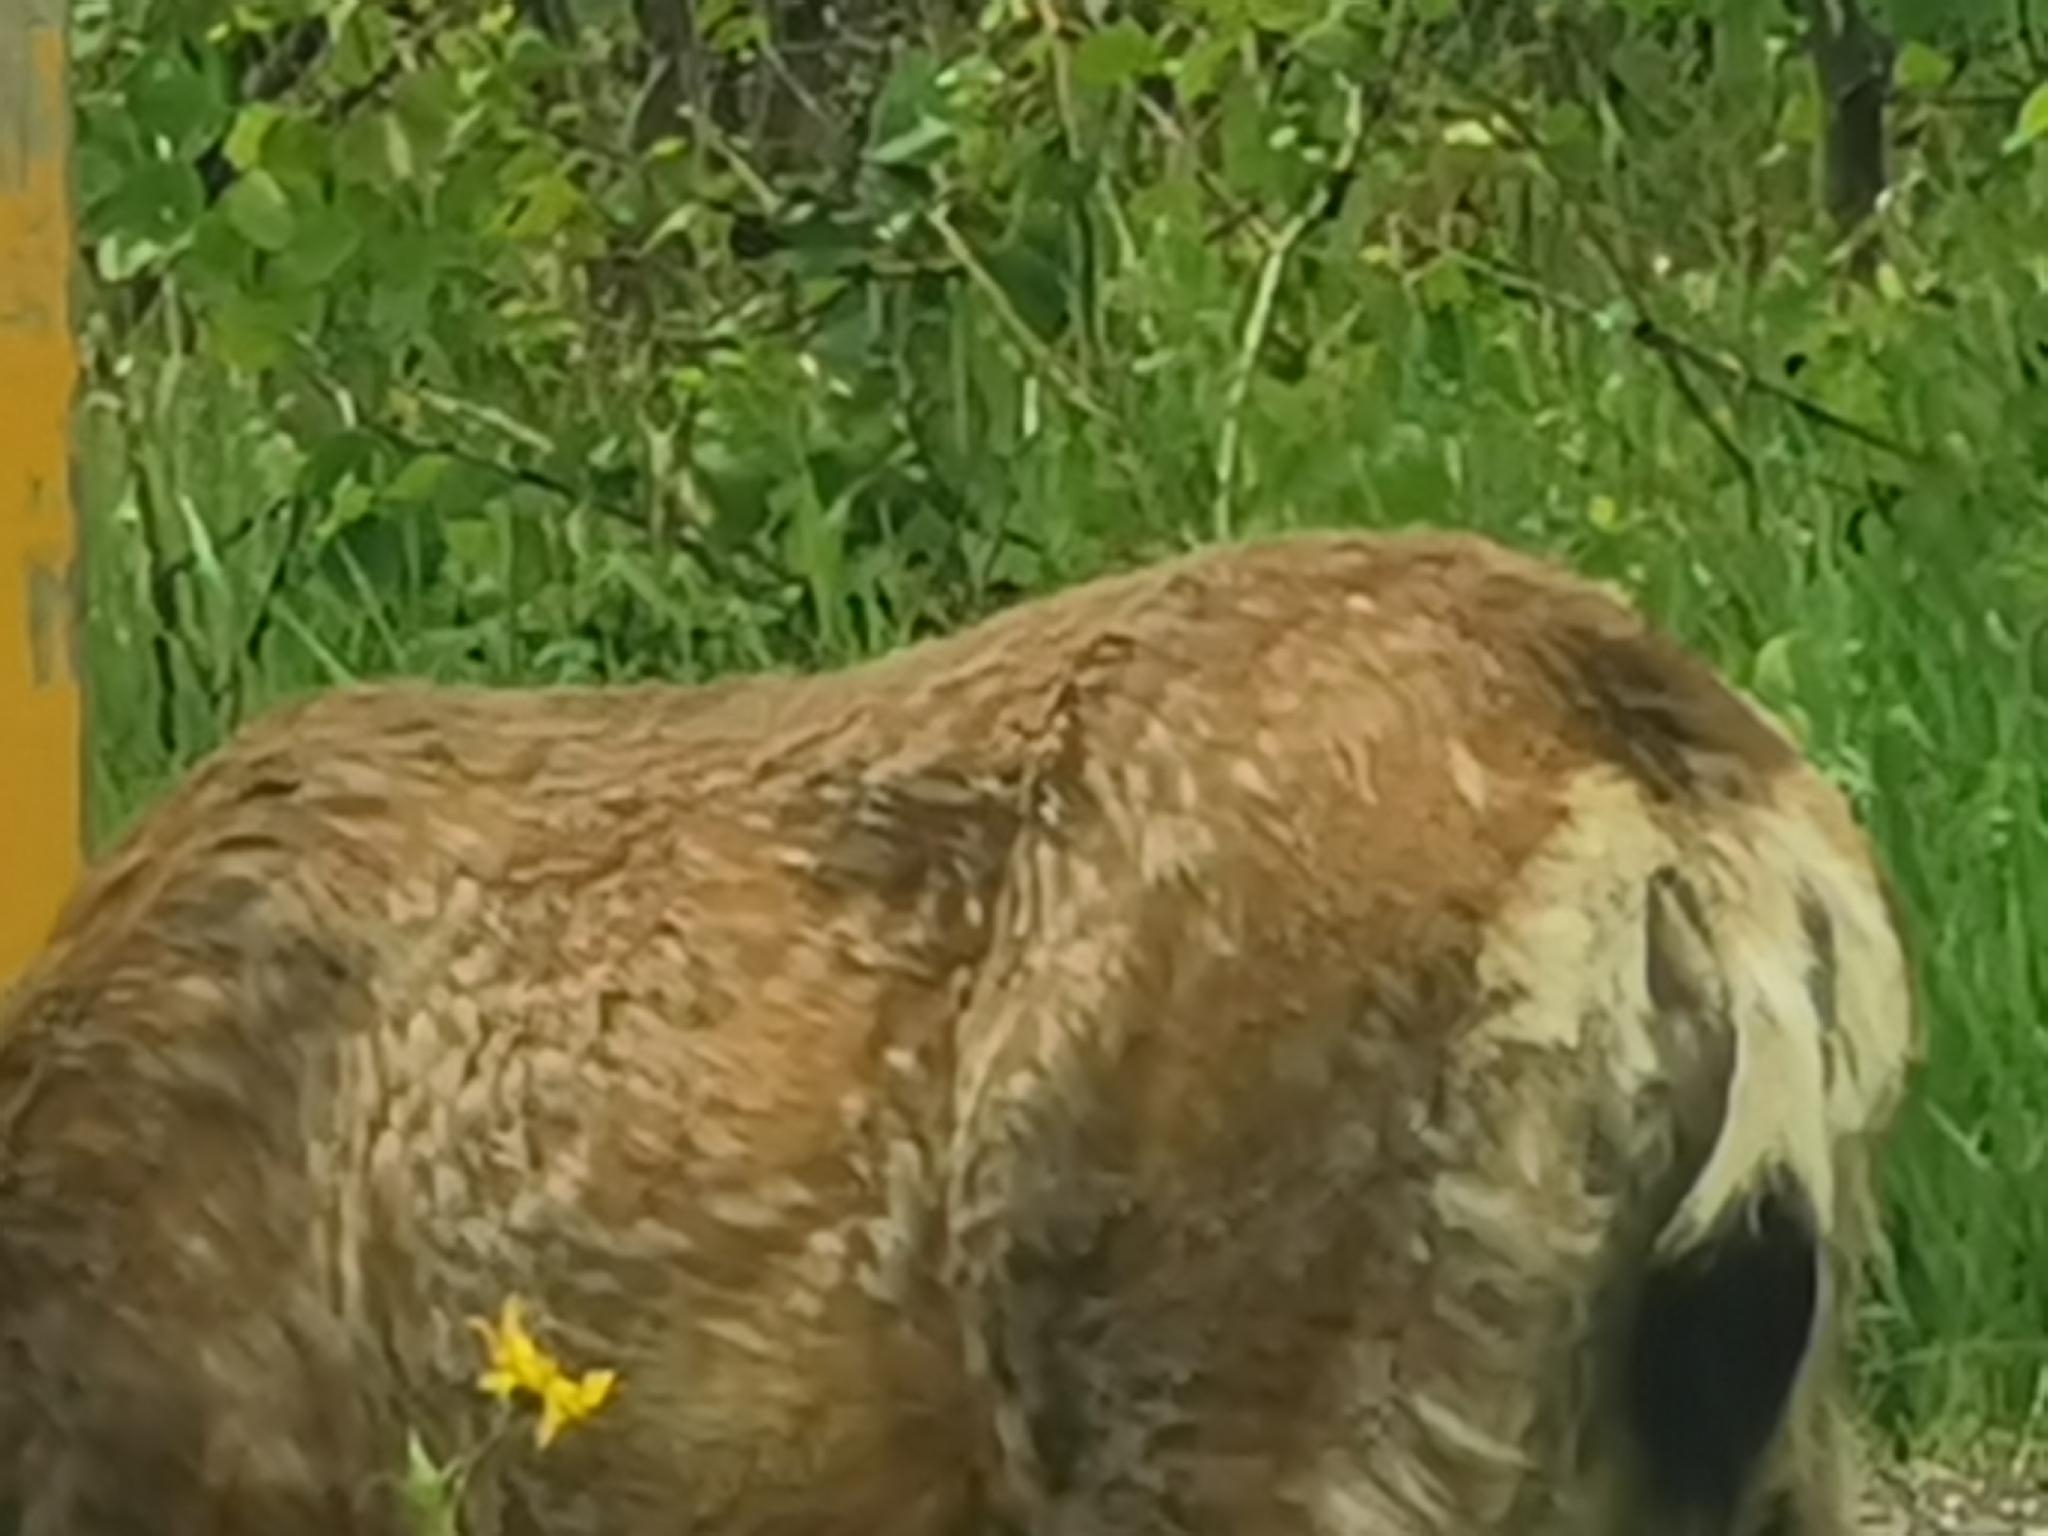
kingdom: Animalia
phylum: Chordata
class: Mammalia
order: Artiodactyla
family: Cervidae
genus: Odocoileus
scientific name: Odocoileus hemionus
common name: Mule deer
